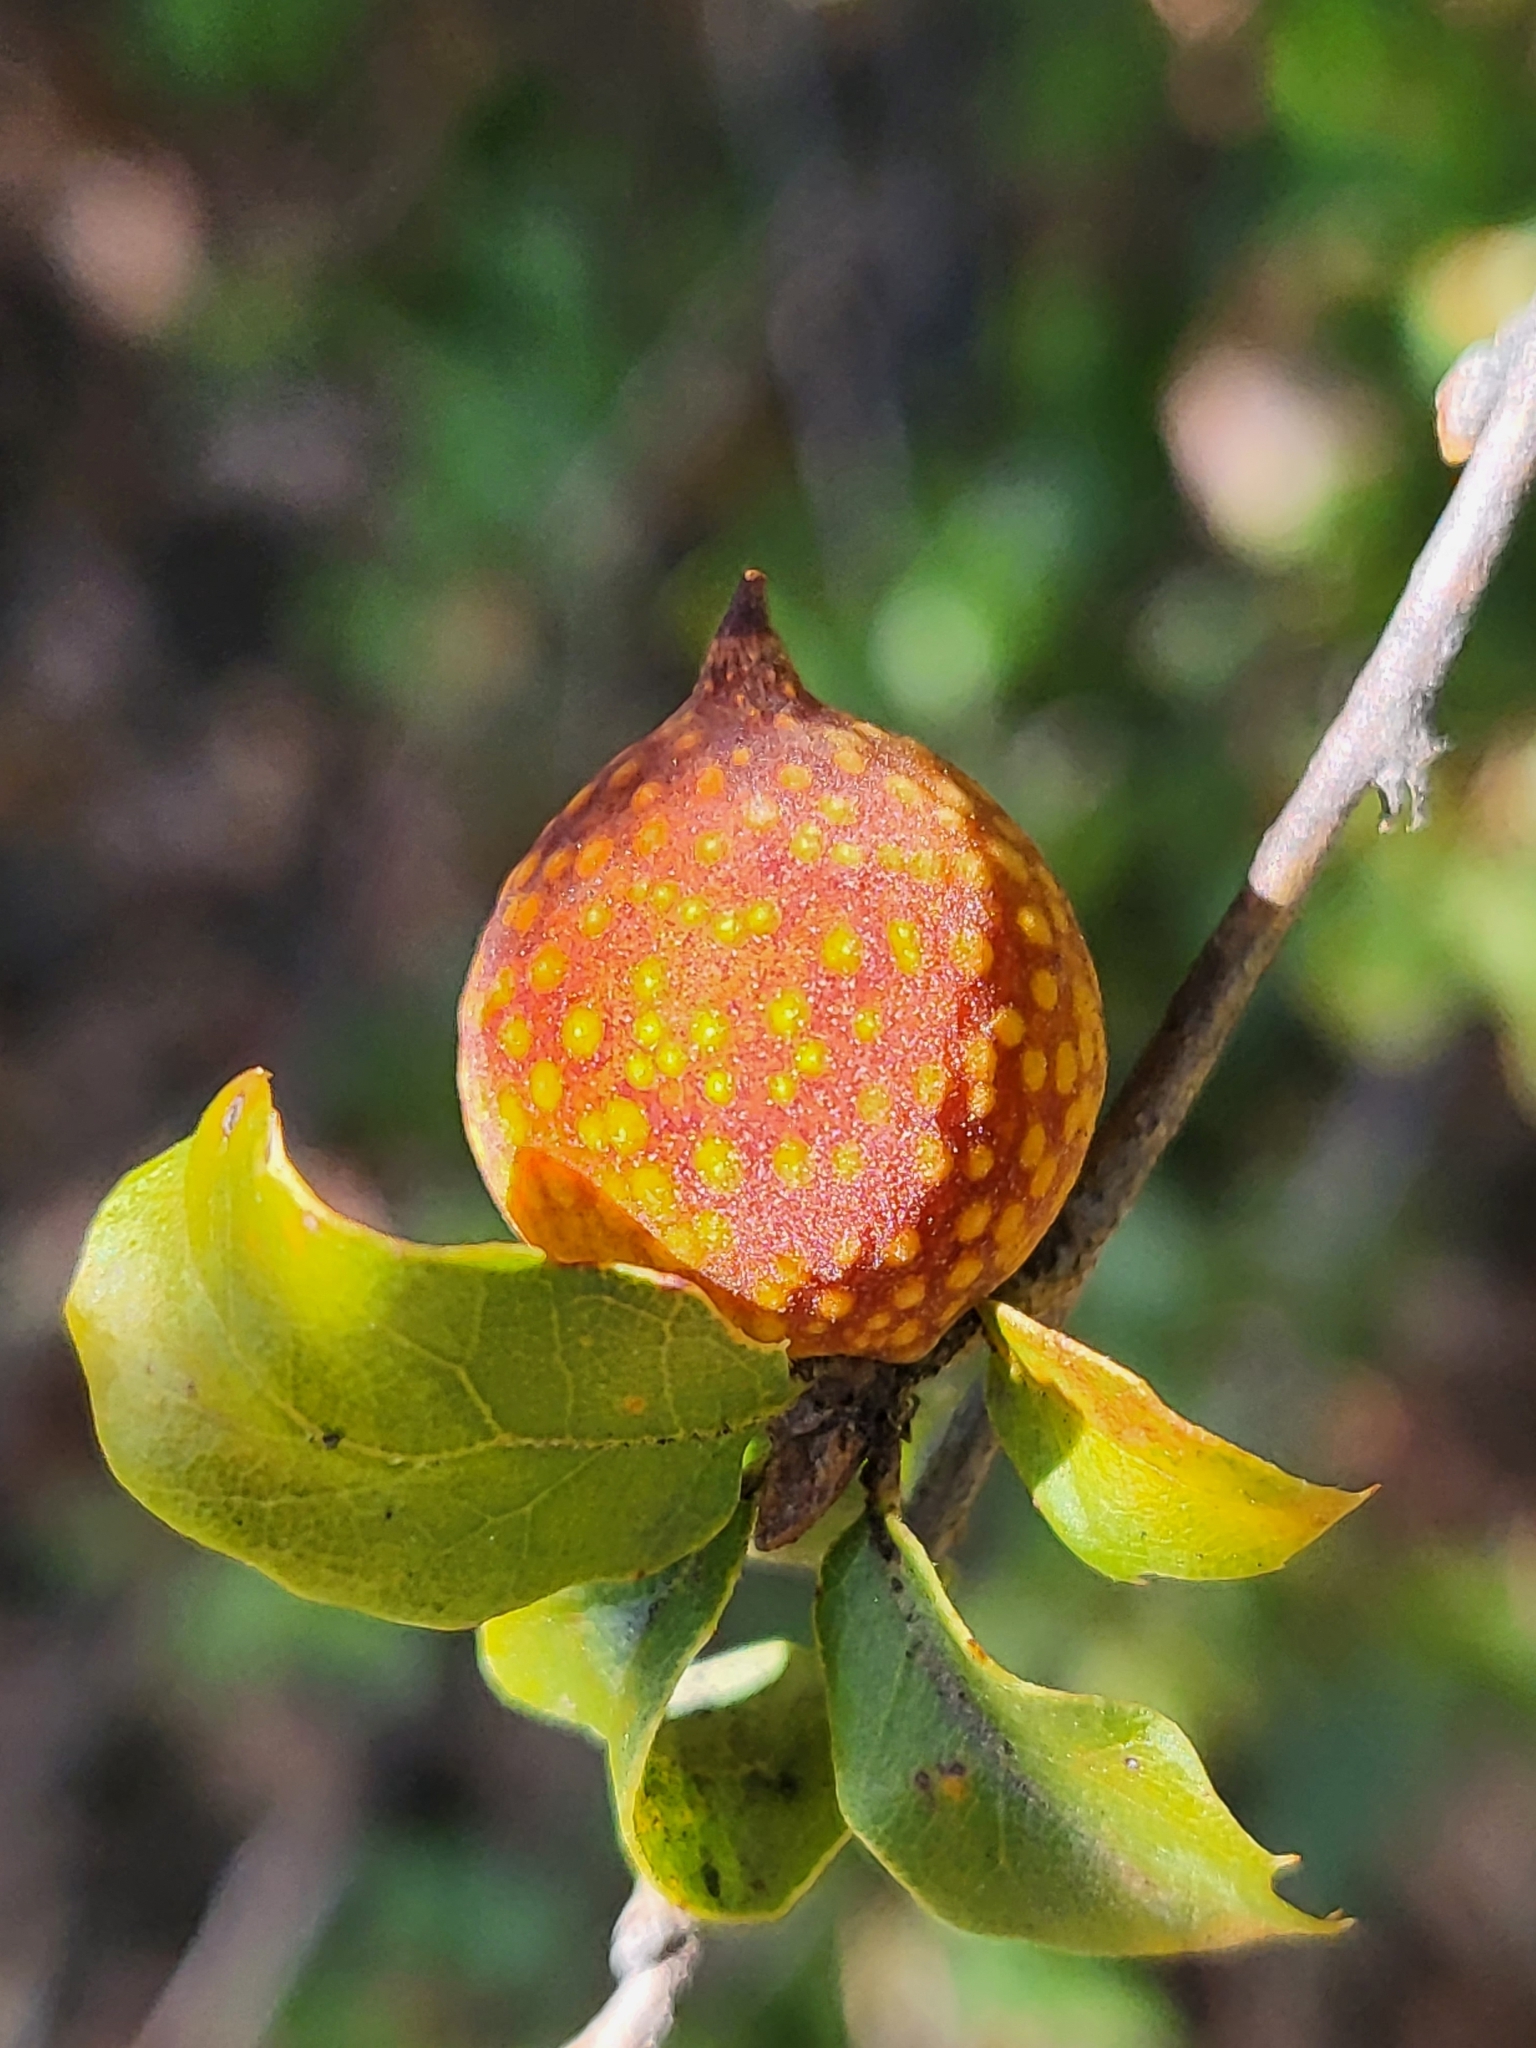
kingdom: Animalia
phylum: Arthropoda
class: Insecta
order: Hymenoptera
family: Cynipidae
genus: Burnettweldia
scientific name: Burnettweldia
